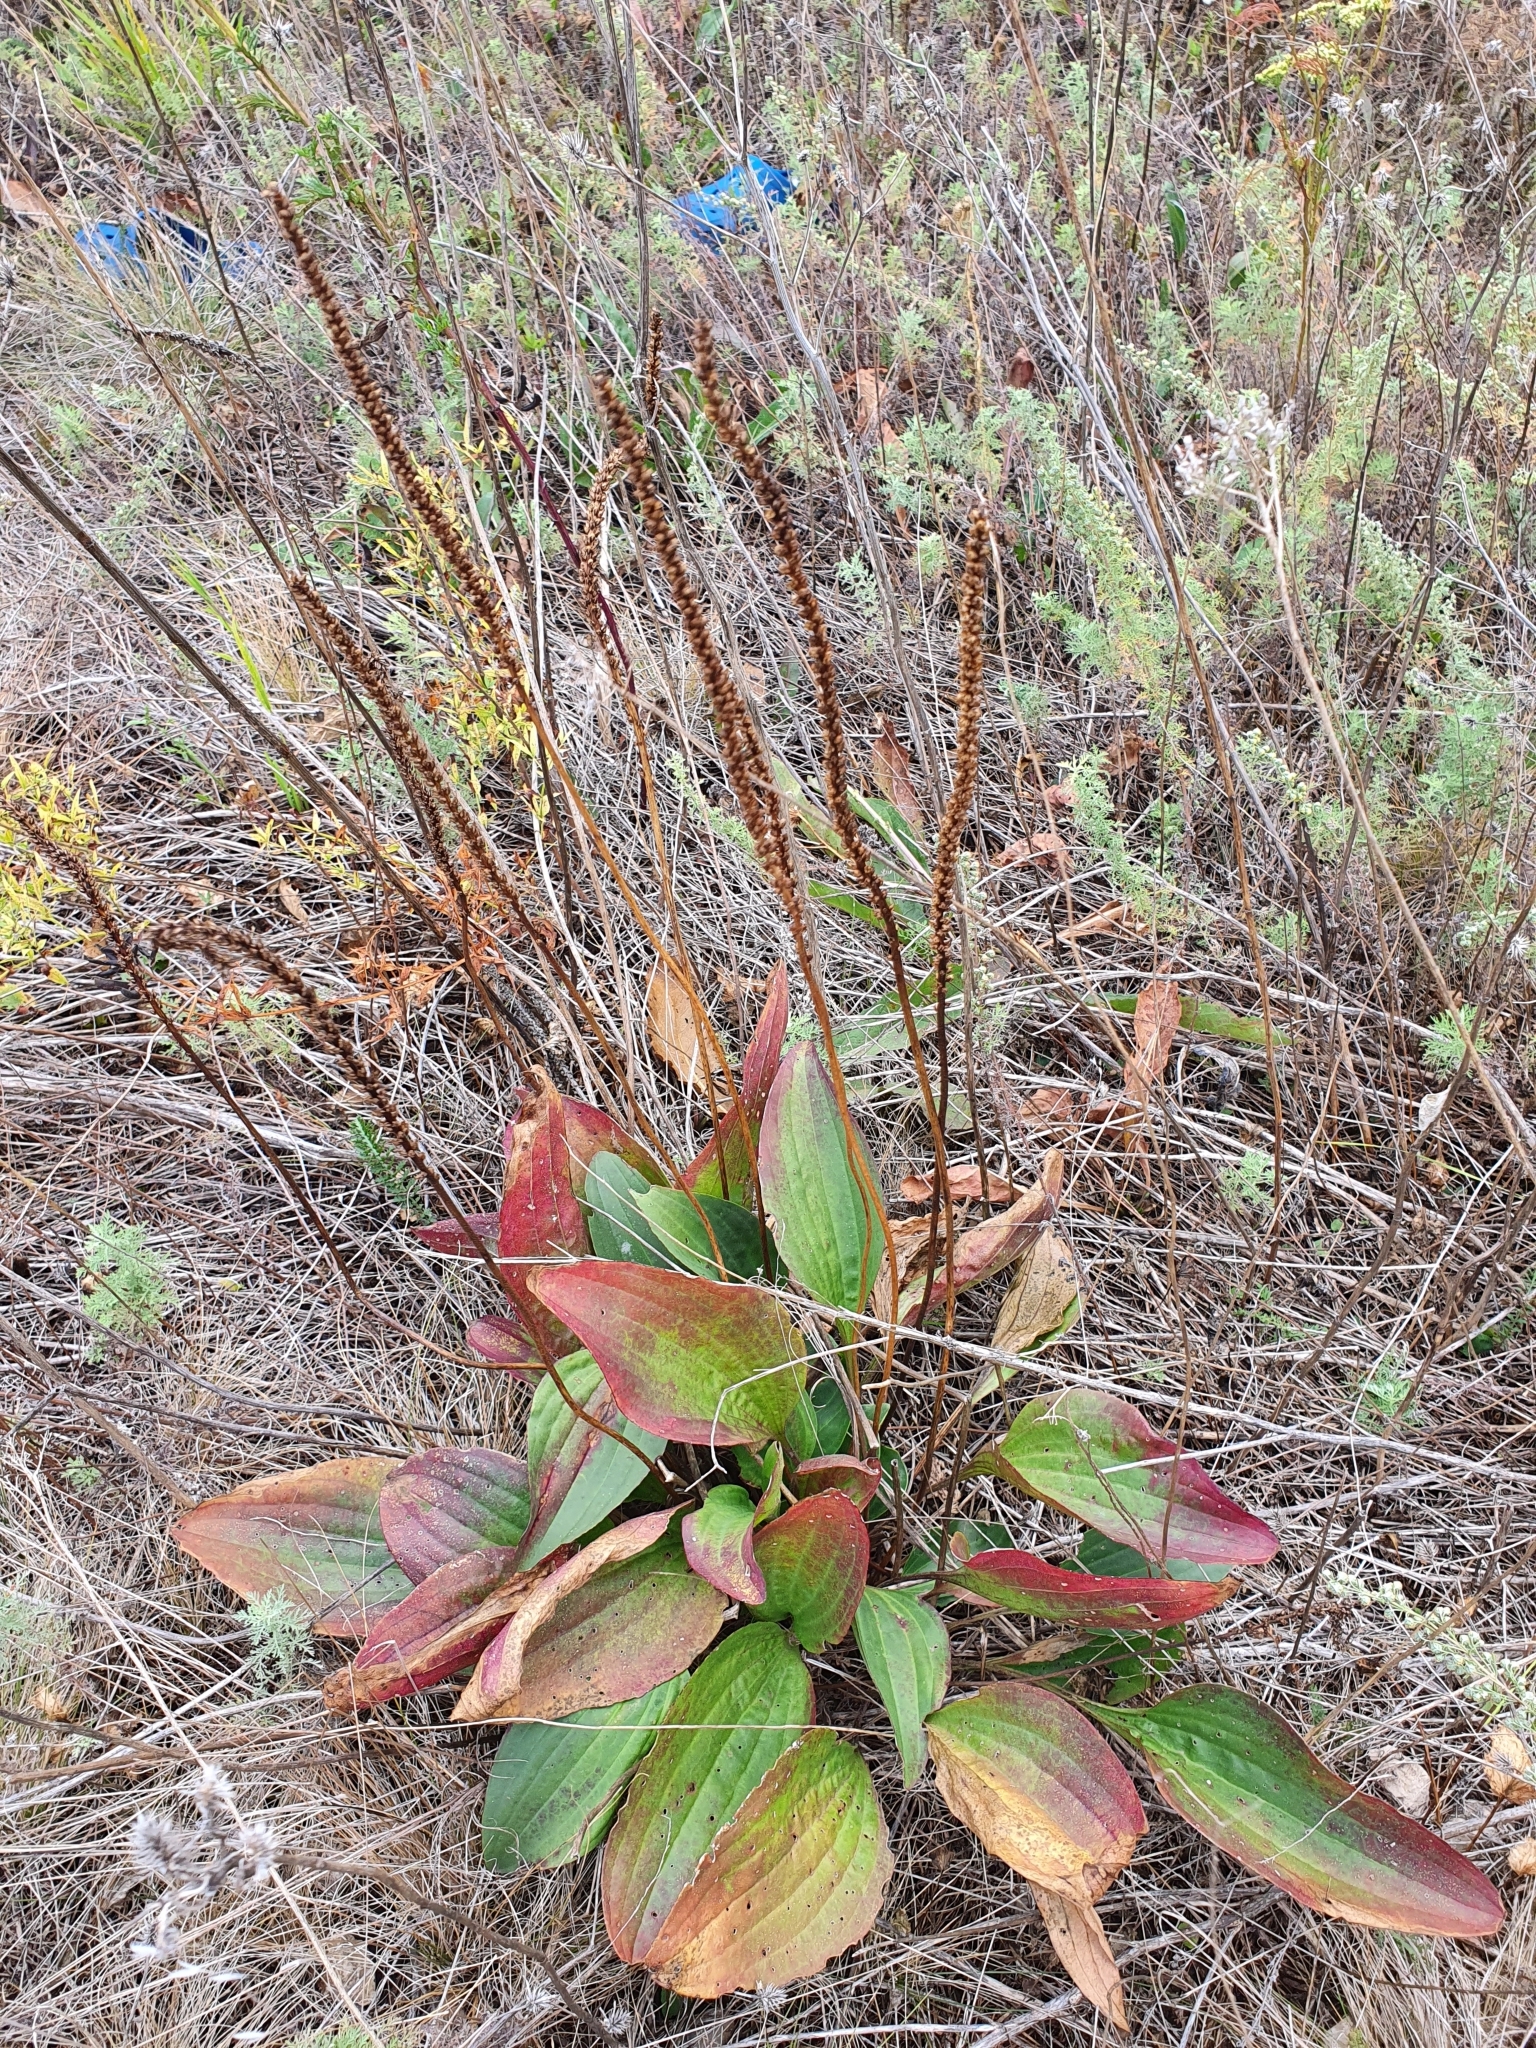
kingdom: Plantae
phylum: Tracheophyta
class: Magnoliopsida
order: Lamiales
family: Plantaginaceae
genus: Plantago
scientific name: Plantago cornuti
